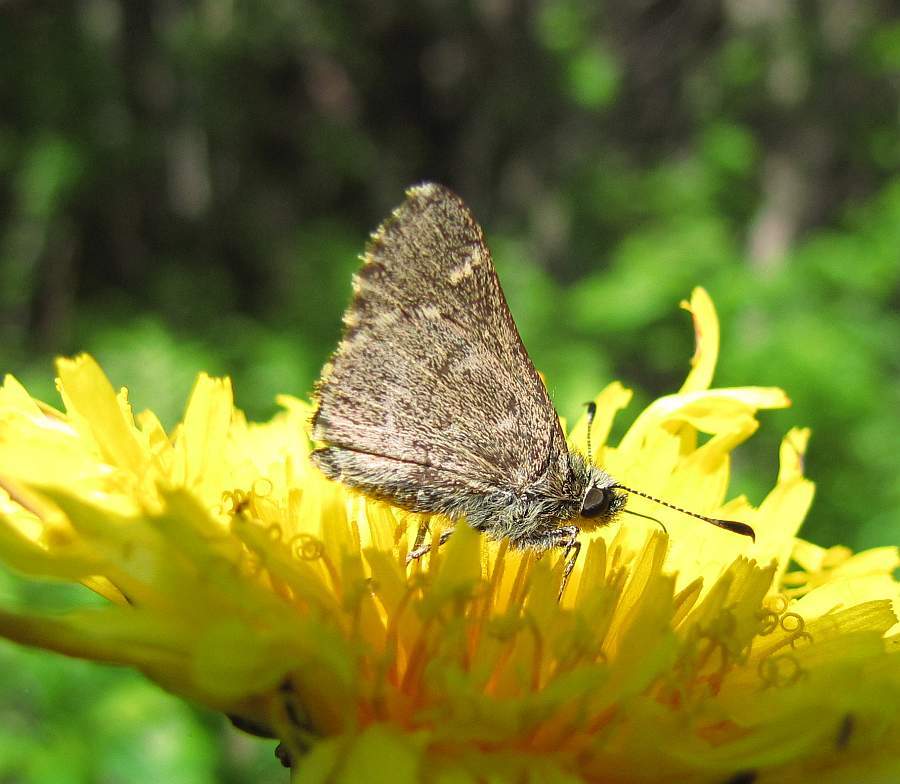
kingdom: Animalia
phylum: Arthropoda
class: Insecta
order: Lepidoptera
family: Hesperiidae
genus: Mastor
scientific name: Mastor hegon
